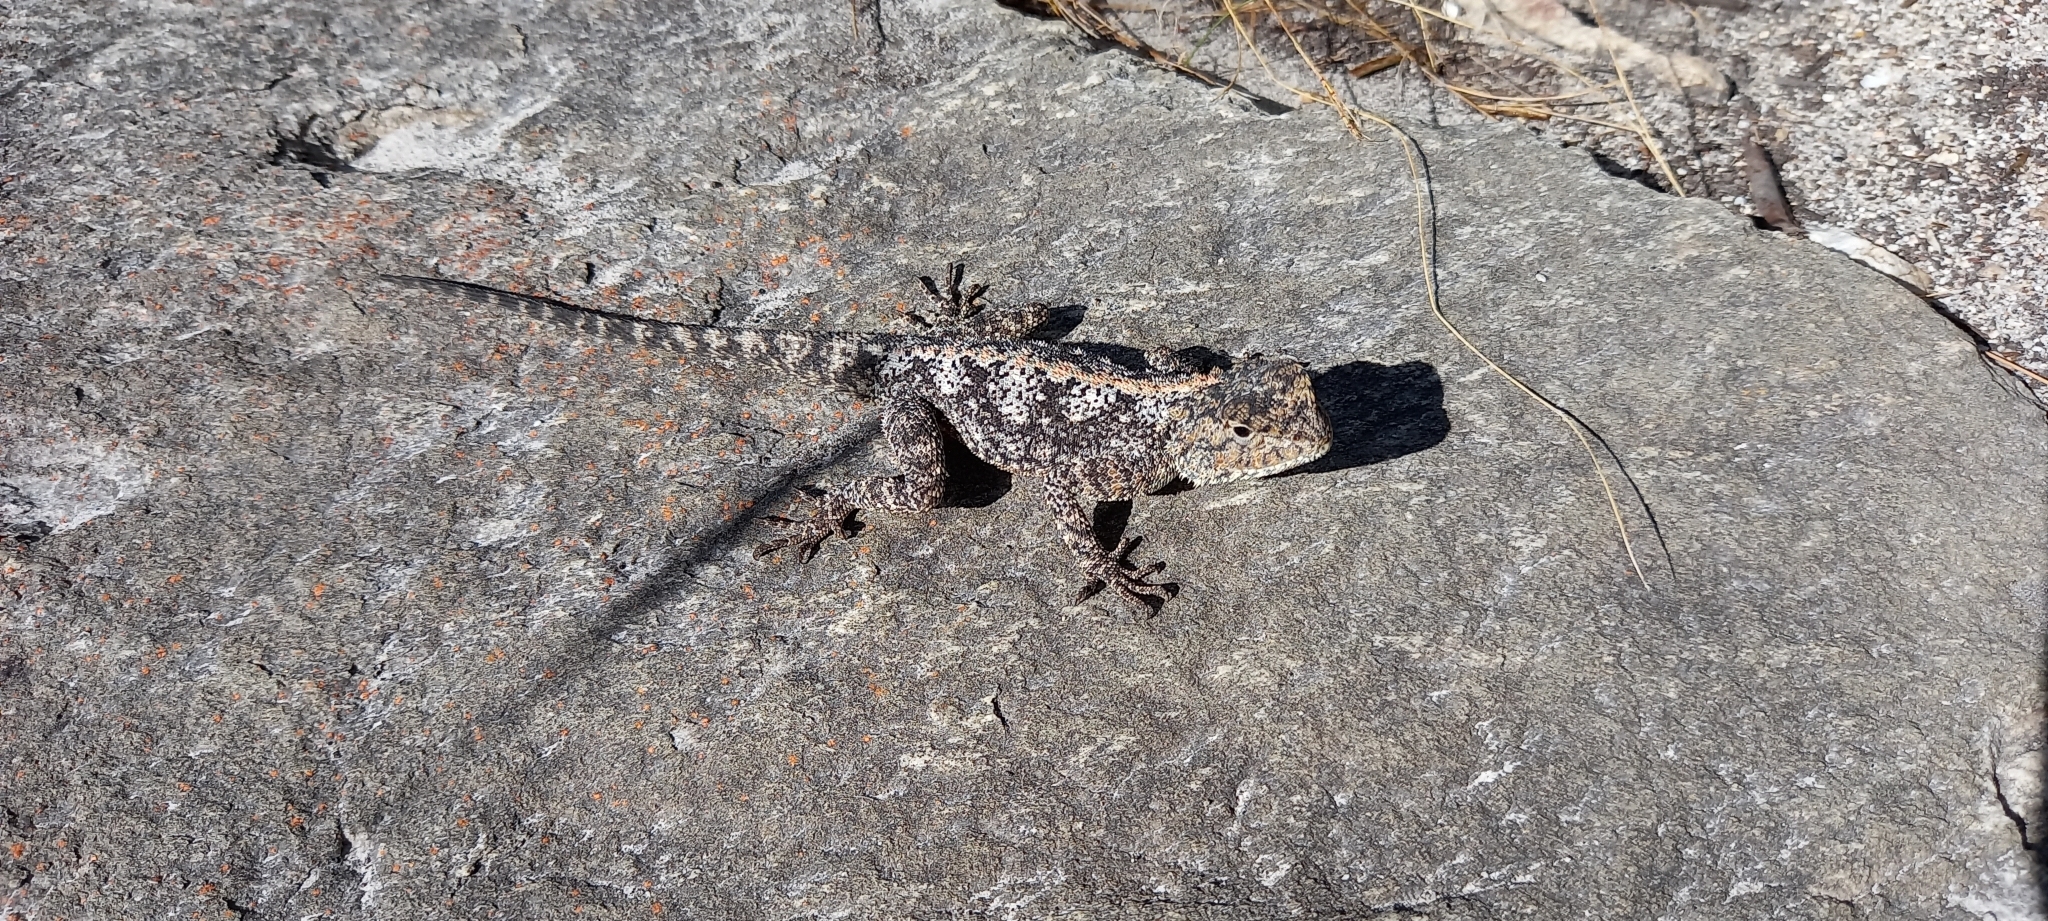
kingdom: Animalia
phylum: Chordata
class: Squamata
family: Agamidae
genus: Agama
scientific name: Agama atra
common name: Southern african rock agama
